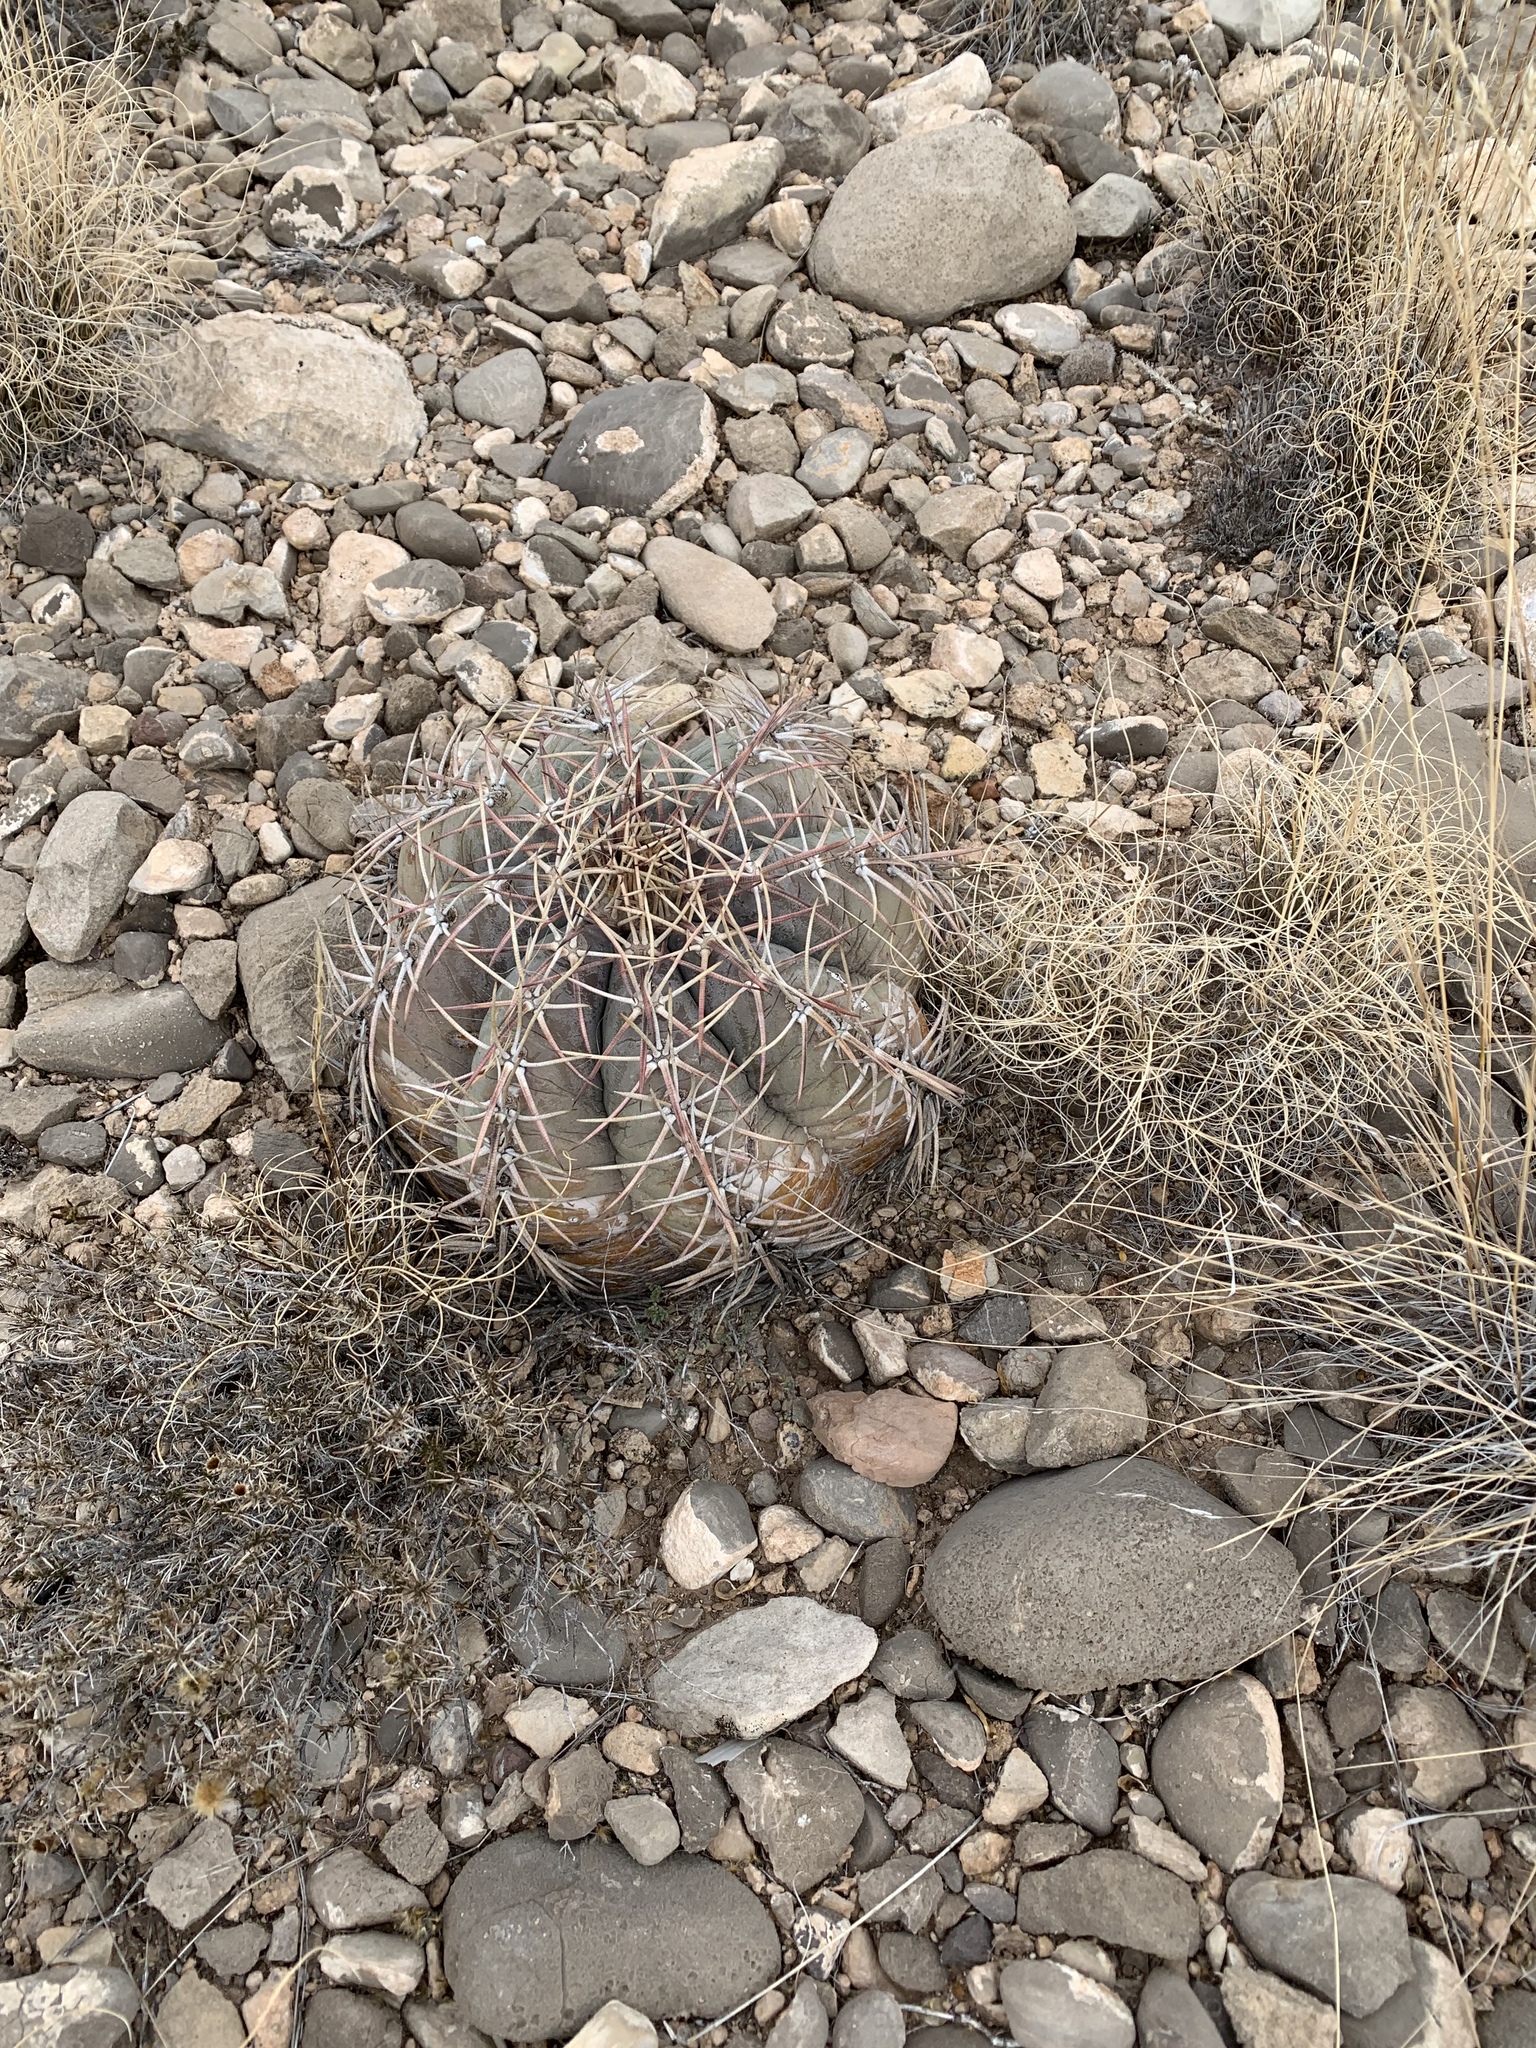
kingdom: Plantae
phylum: Tracheophyta
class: Magnoliopsida
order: Caryophyllales
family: Cactaceae
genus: Echinocactus
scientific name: Echinocactus horizonthalonius
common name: Devilshead
